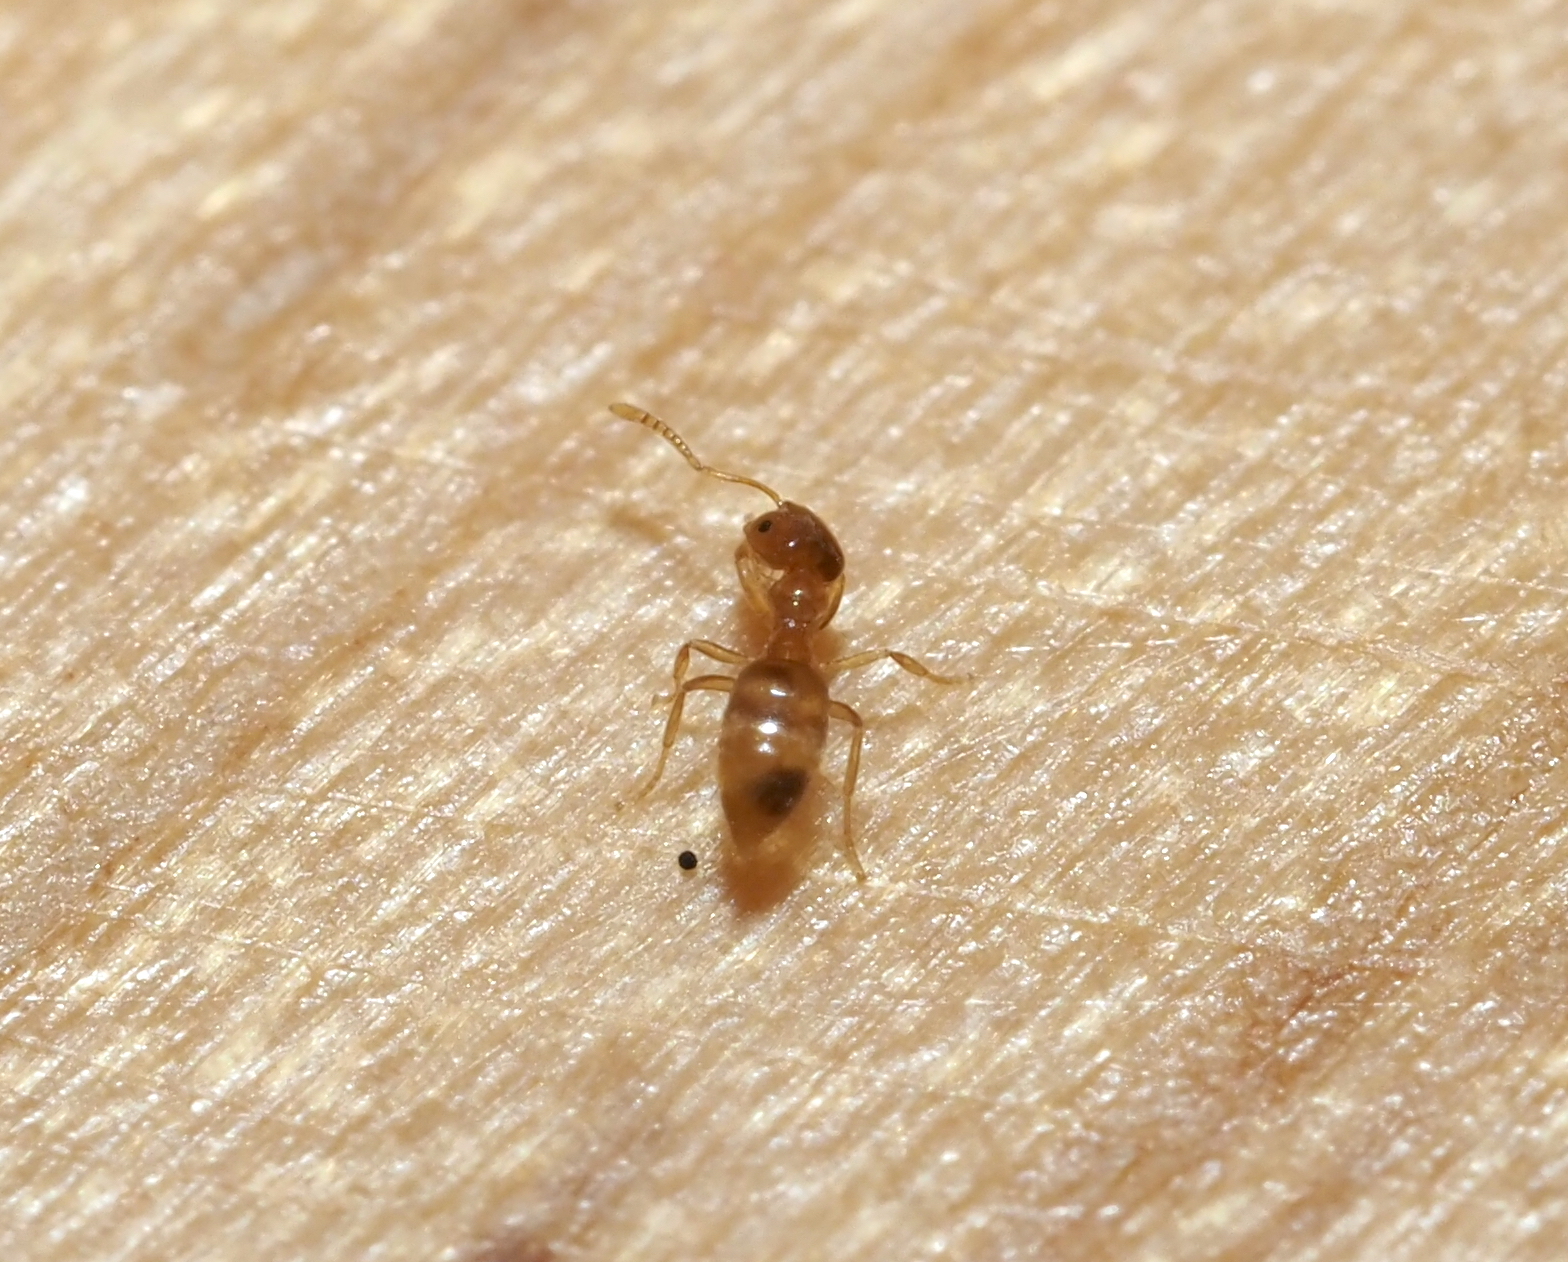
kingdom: Animalia
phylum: Arthropoda
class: Insecta
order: Hymenoptera
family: Formicidae
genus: Brachymyrmex
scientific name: Brachymyrmex depilis
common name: Hairless rover ant
